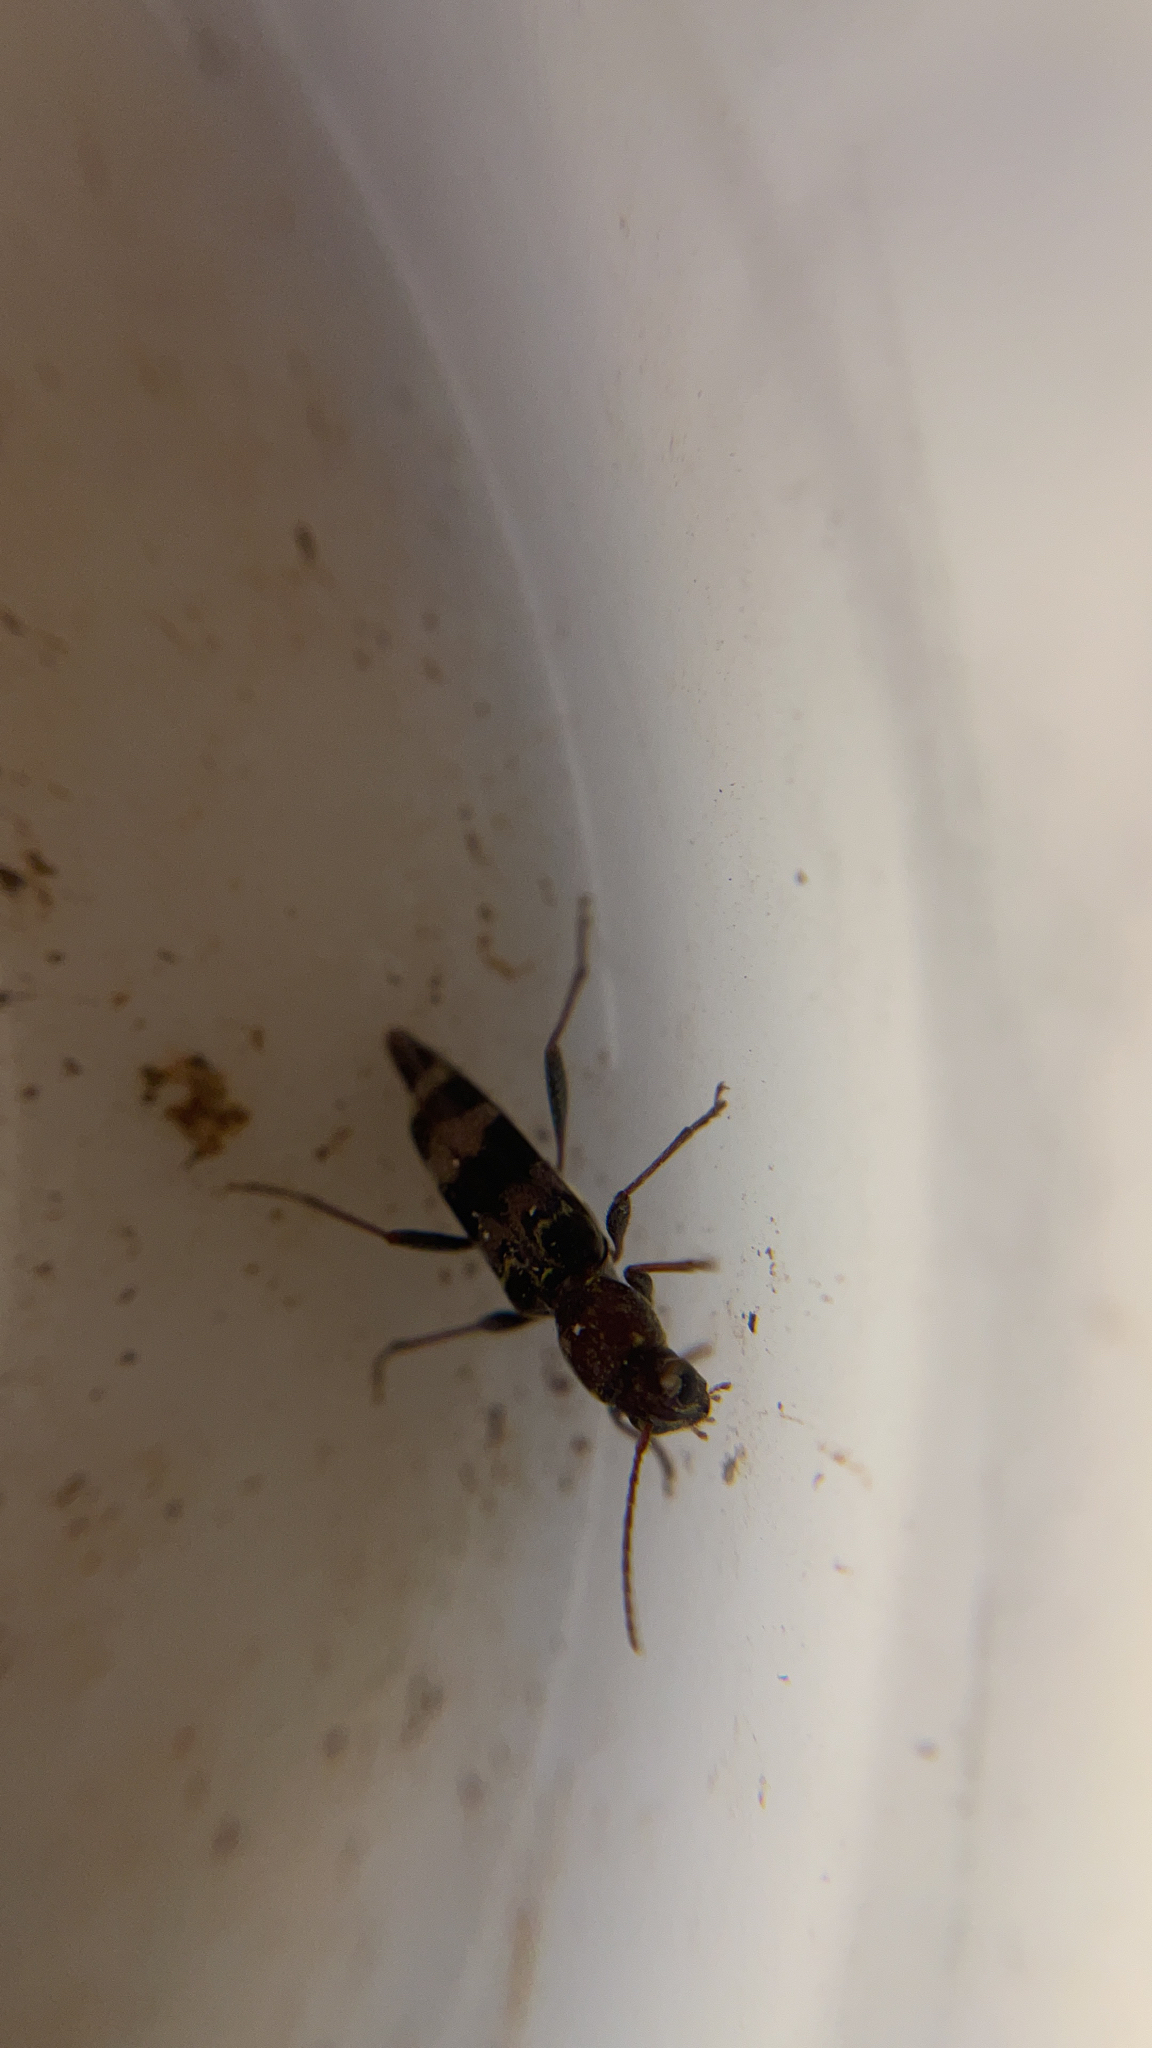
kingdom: Animalia
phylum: Arthropoda
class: Insecta
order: Coleoptera
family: Cerambycidae
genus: Xylotrechus
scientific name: Xylotrechus colonus
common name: Long-horned beetle
